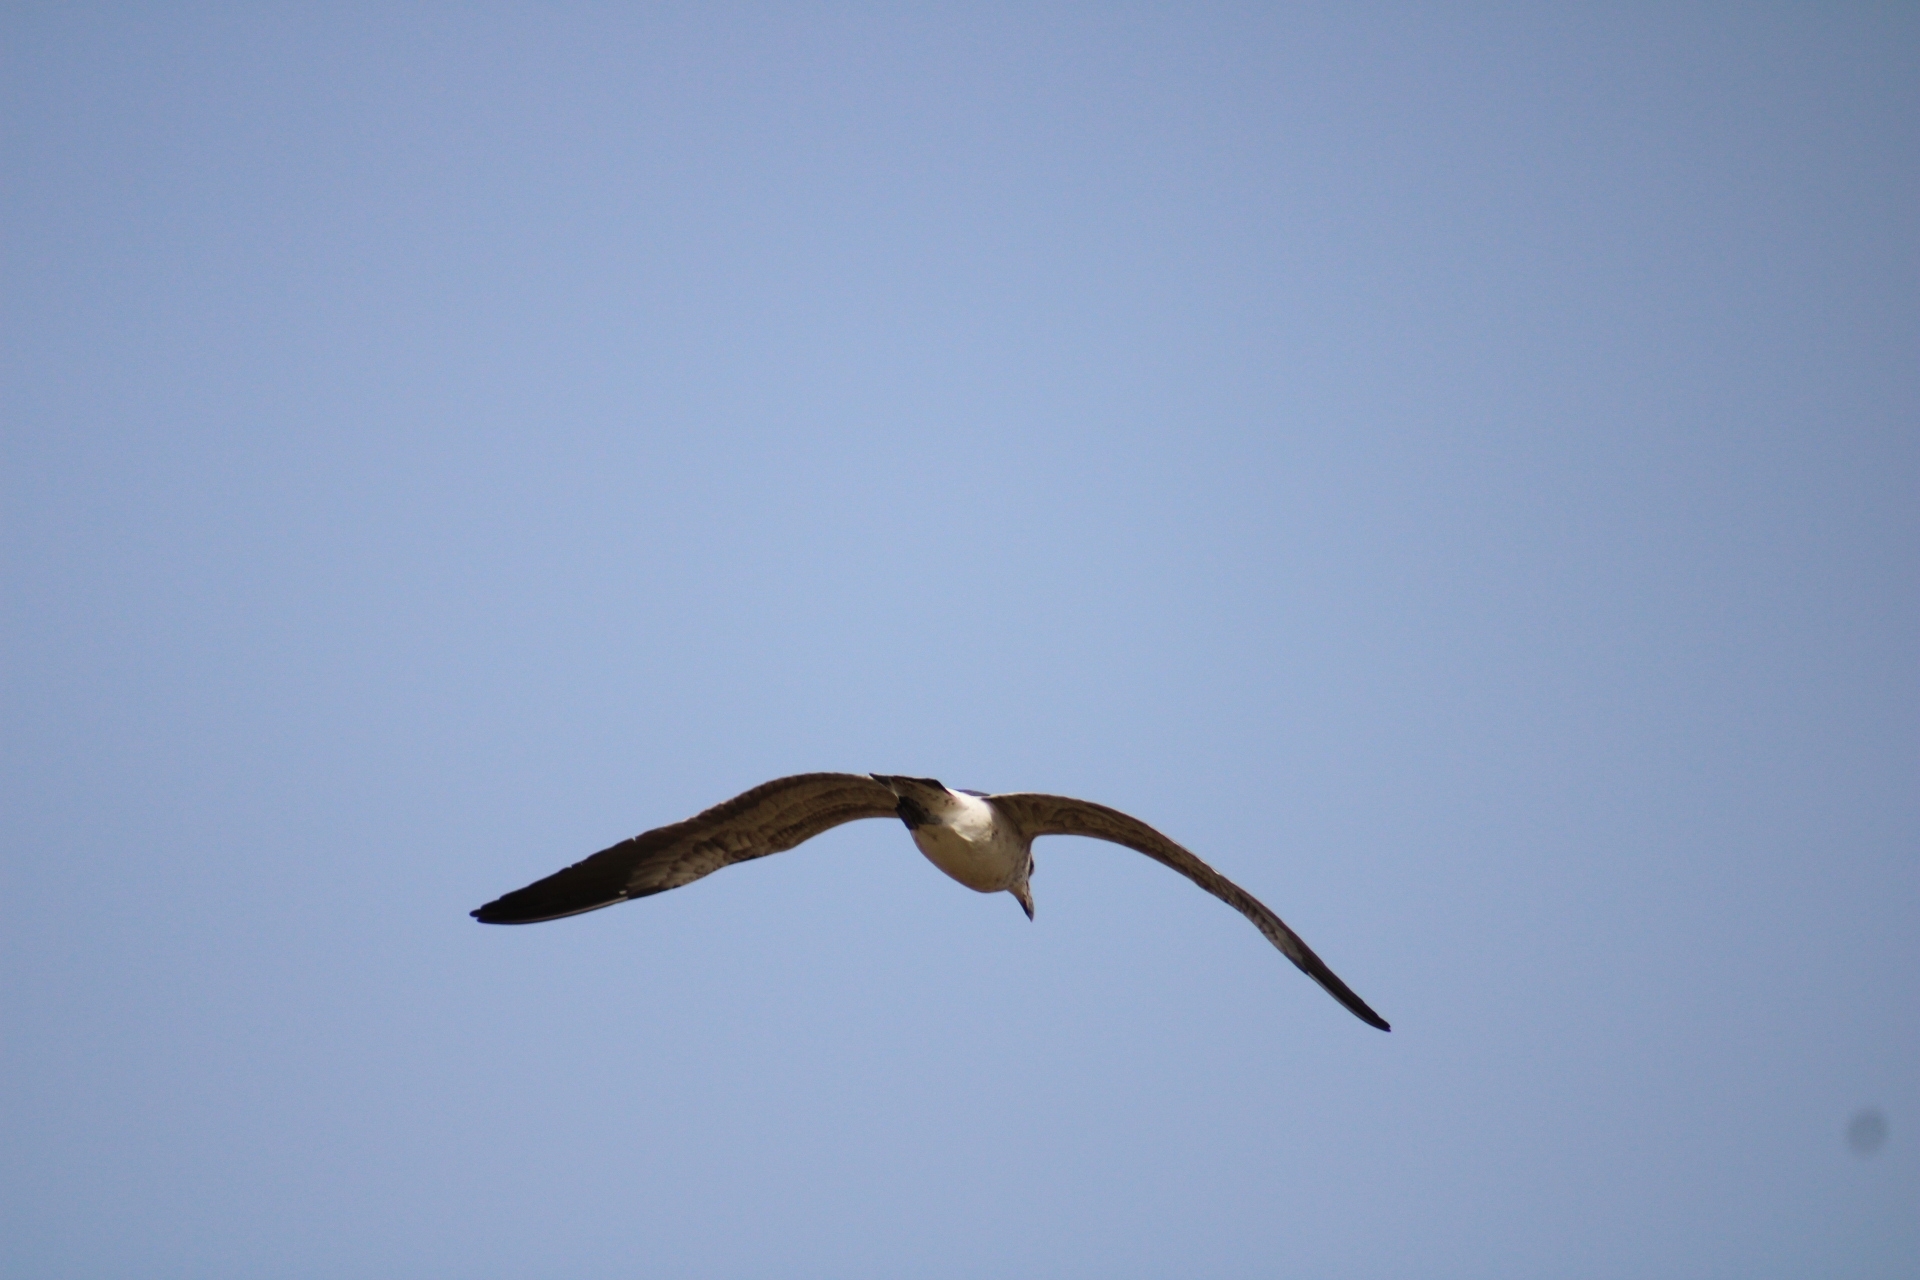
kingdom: Animalia
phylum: Chordata
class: Aves
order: Charadriiformes
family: Laridae
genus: Larus
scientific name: Larus dominicanus
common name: Kelp gull
